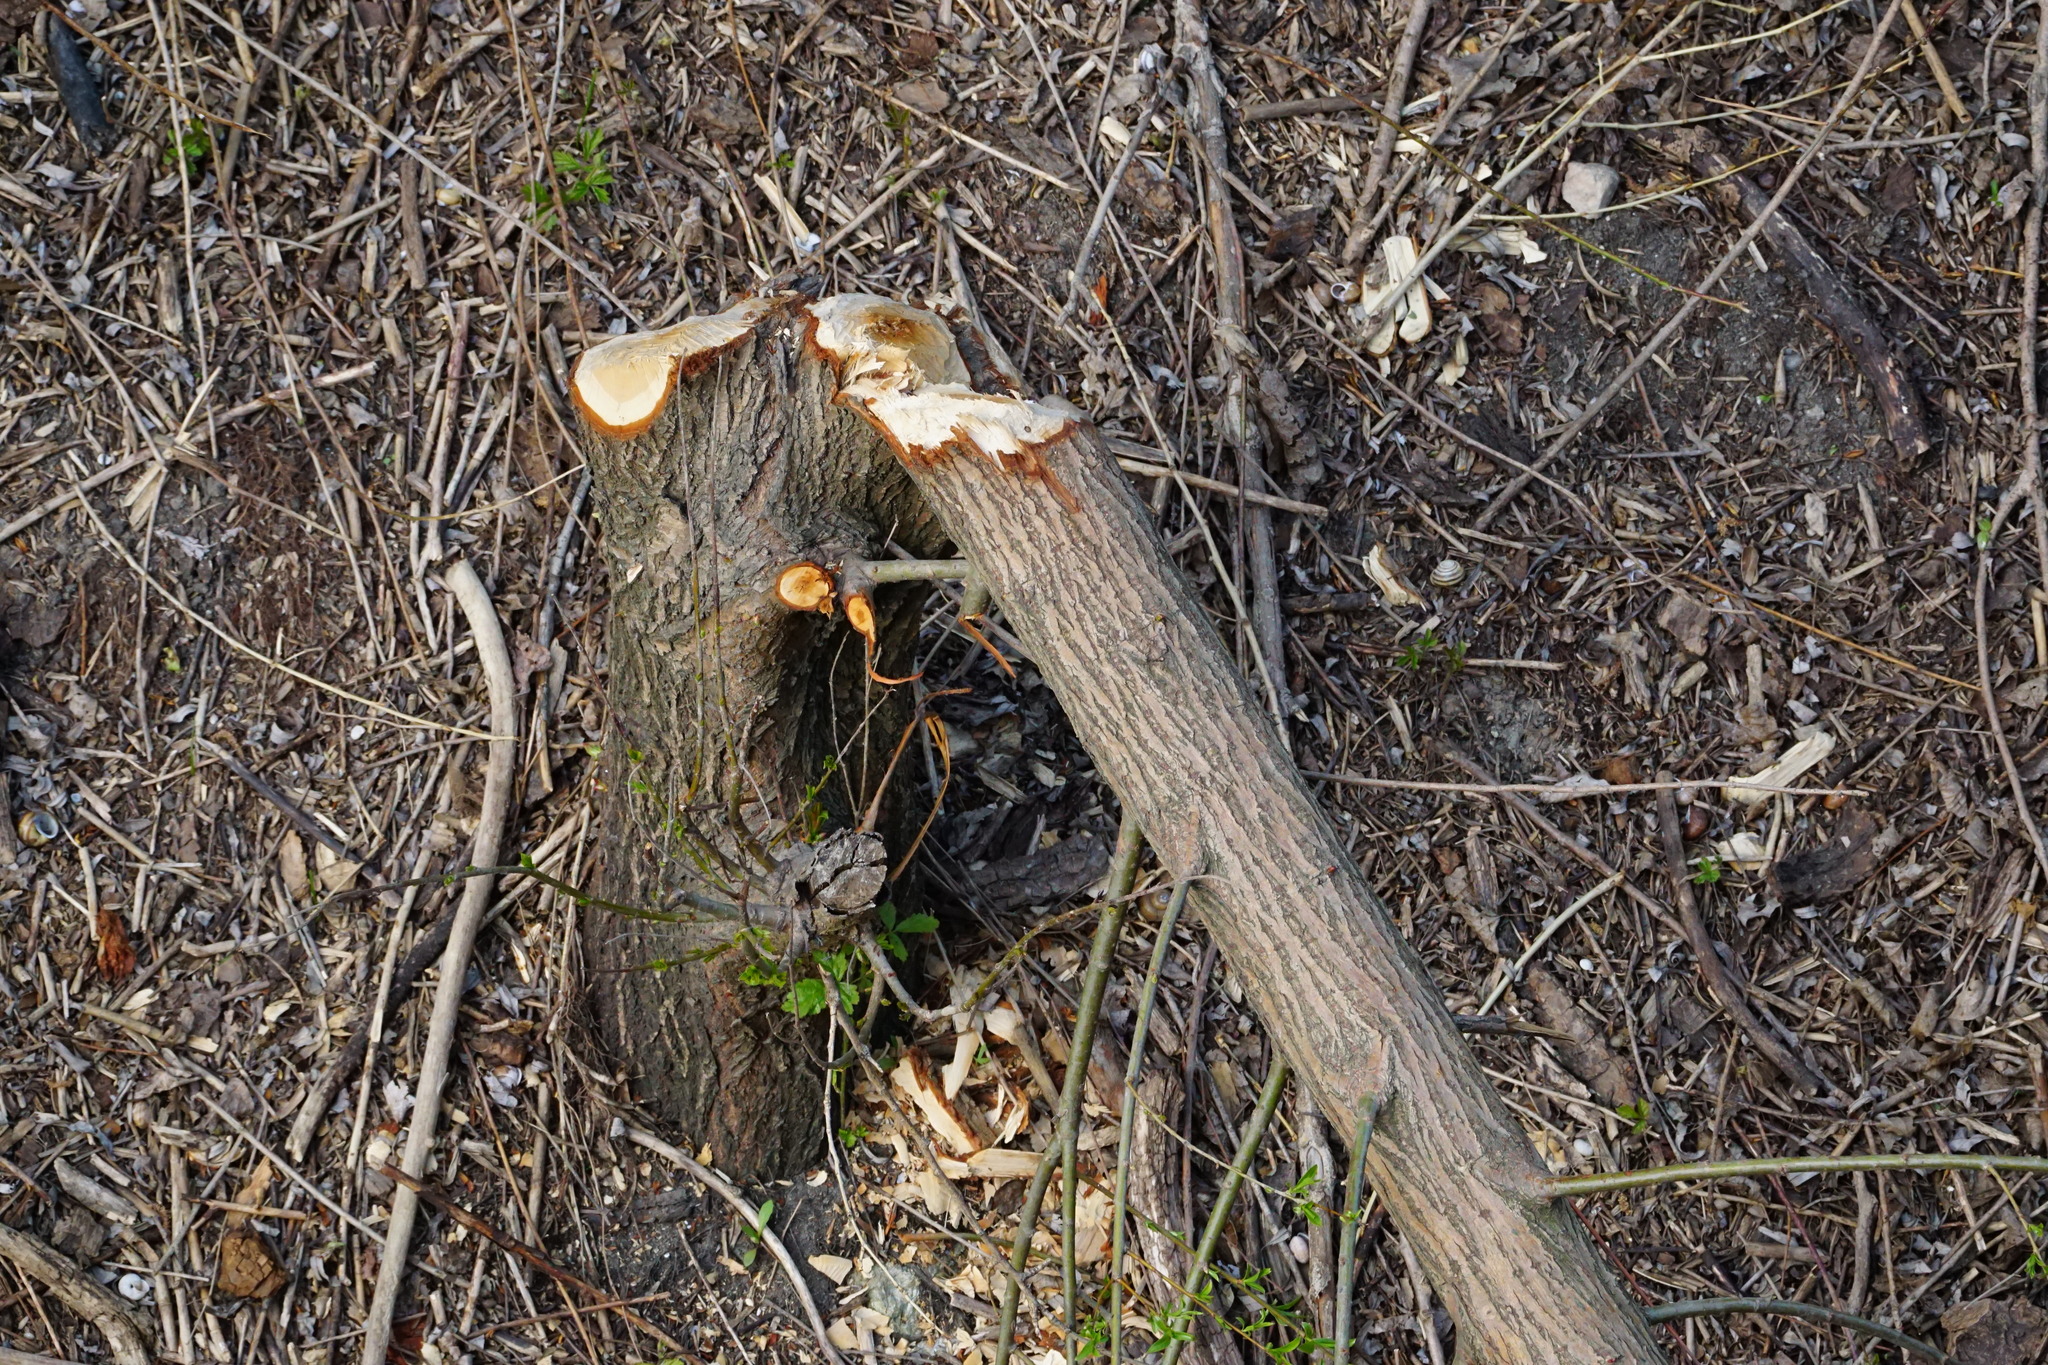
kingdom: Animalia
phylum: Chordata
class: Mammalia
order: Rodentia
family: Castoridae
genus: Castor
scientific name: Castor fiber
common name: Eurasian beaver
